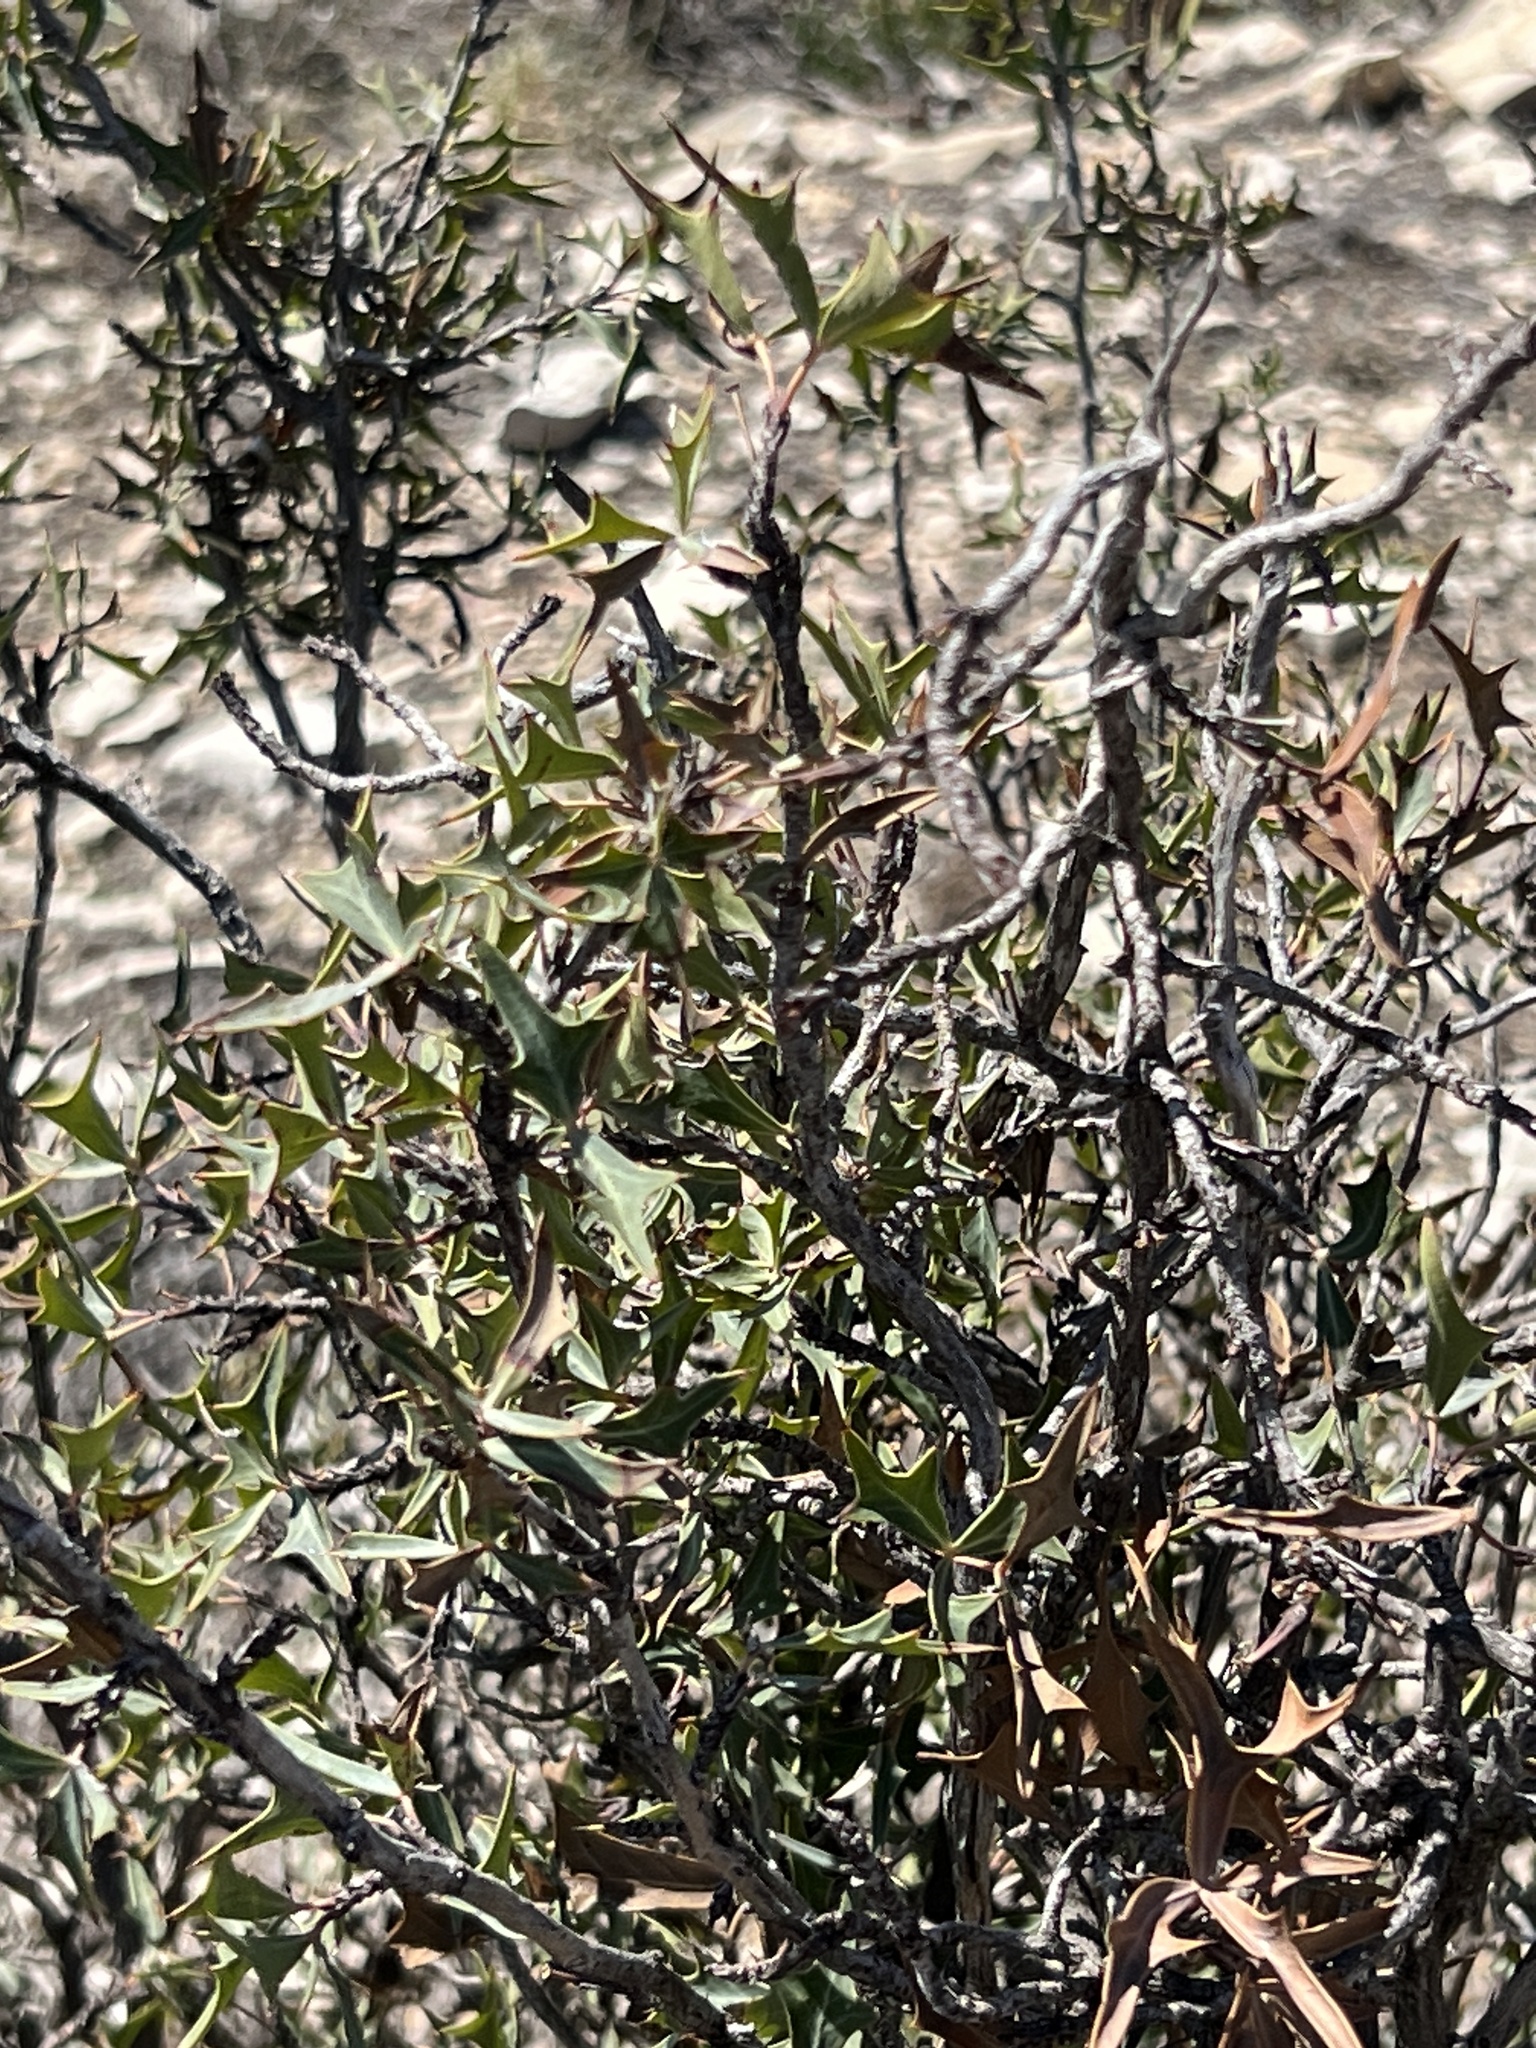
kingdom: Plantae
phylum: Tracheophyta
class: Magnoliopsida
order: Ranunculales
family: Berberidaceae
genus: Alloberberis
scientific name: Alloberberis trifoliolata
